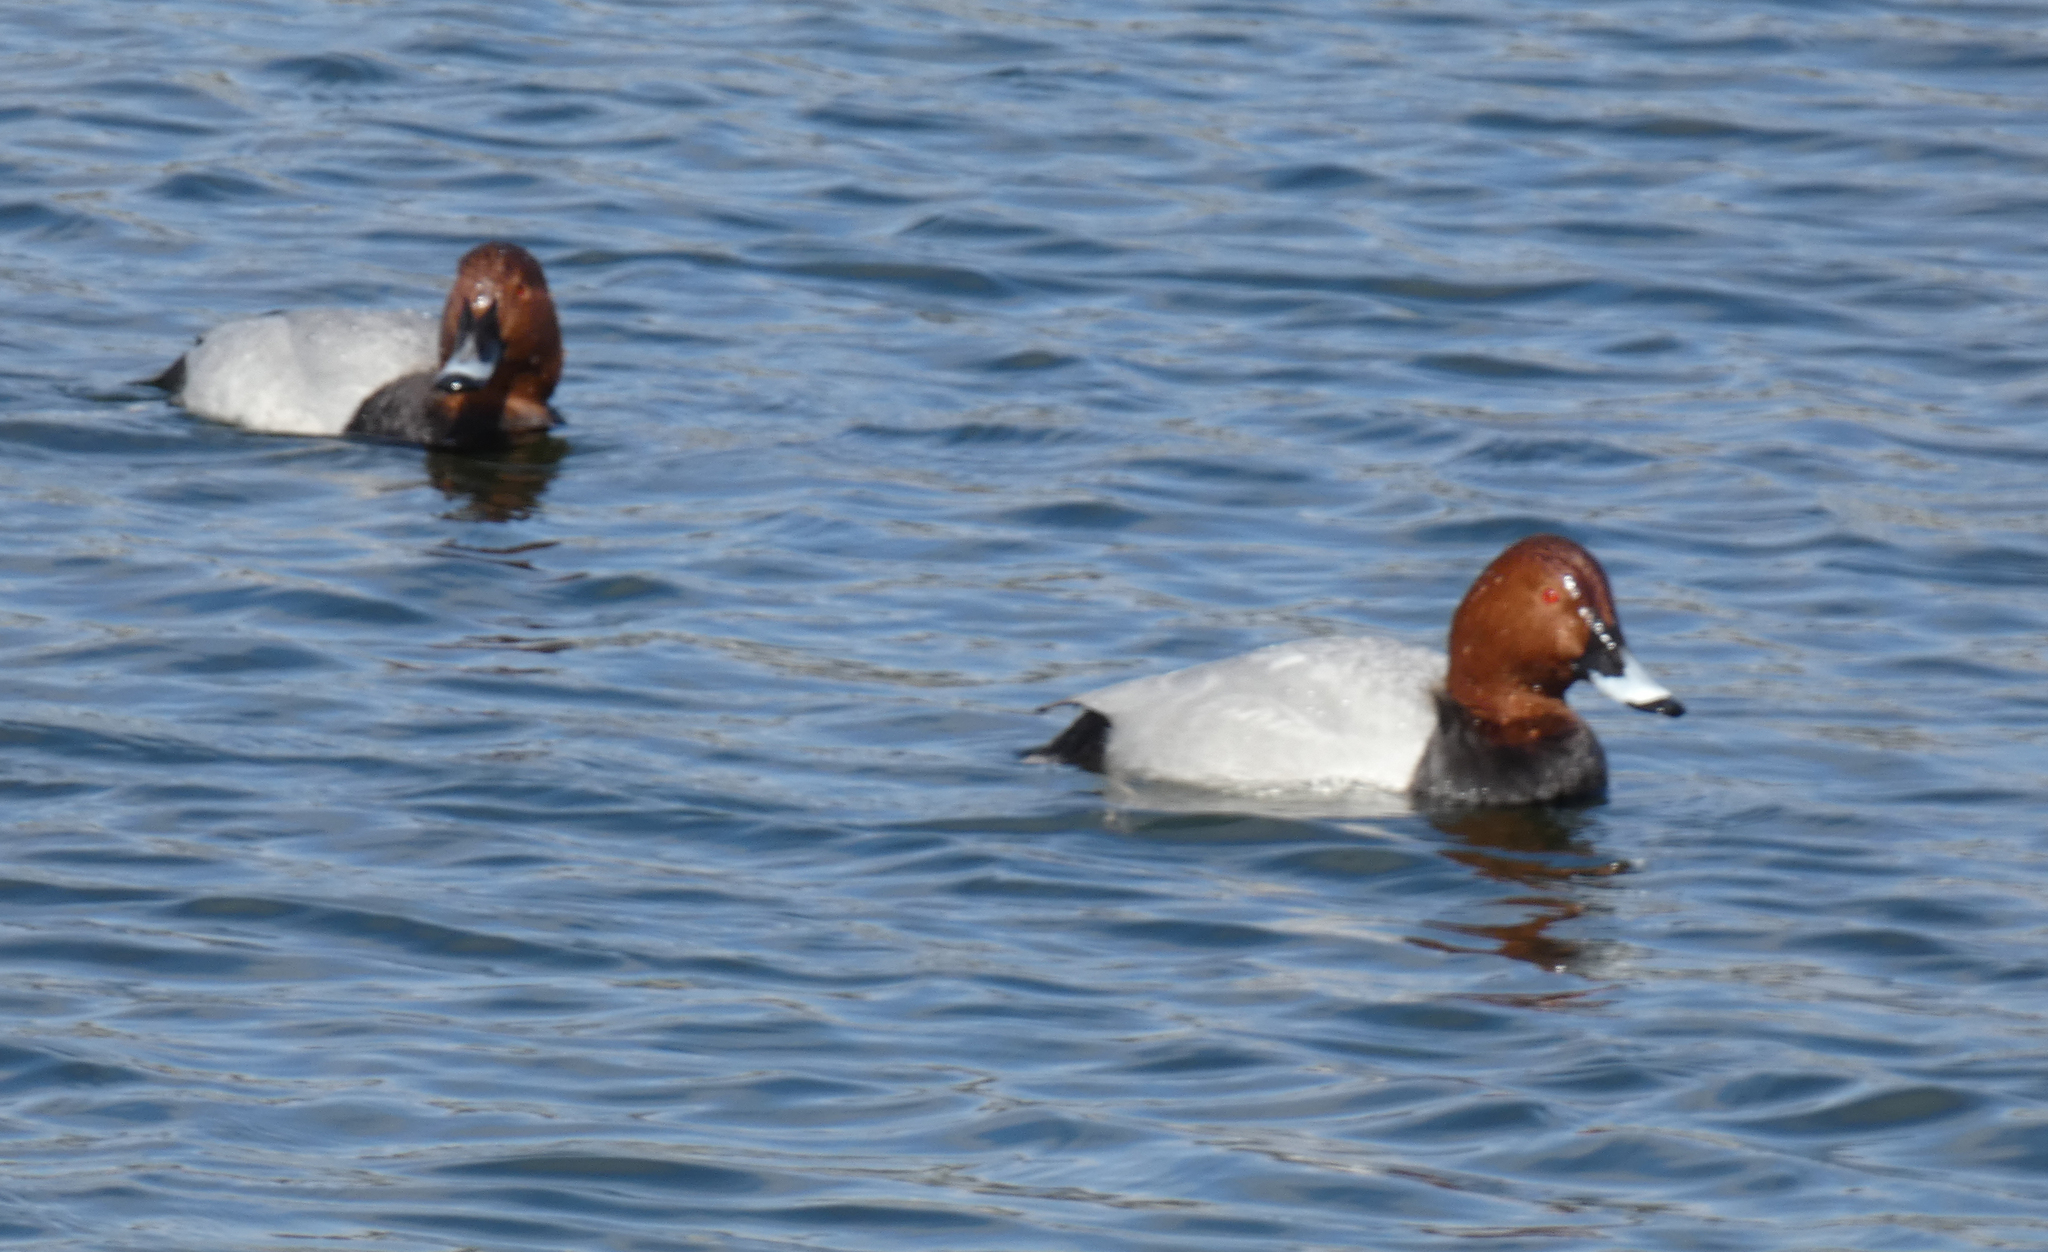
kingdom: Animalia
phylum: Chordata
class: Aves
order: Anseriformes
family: Anatidae
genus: Aythya
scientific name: Aythya ferina
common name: Common pochard
